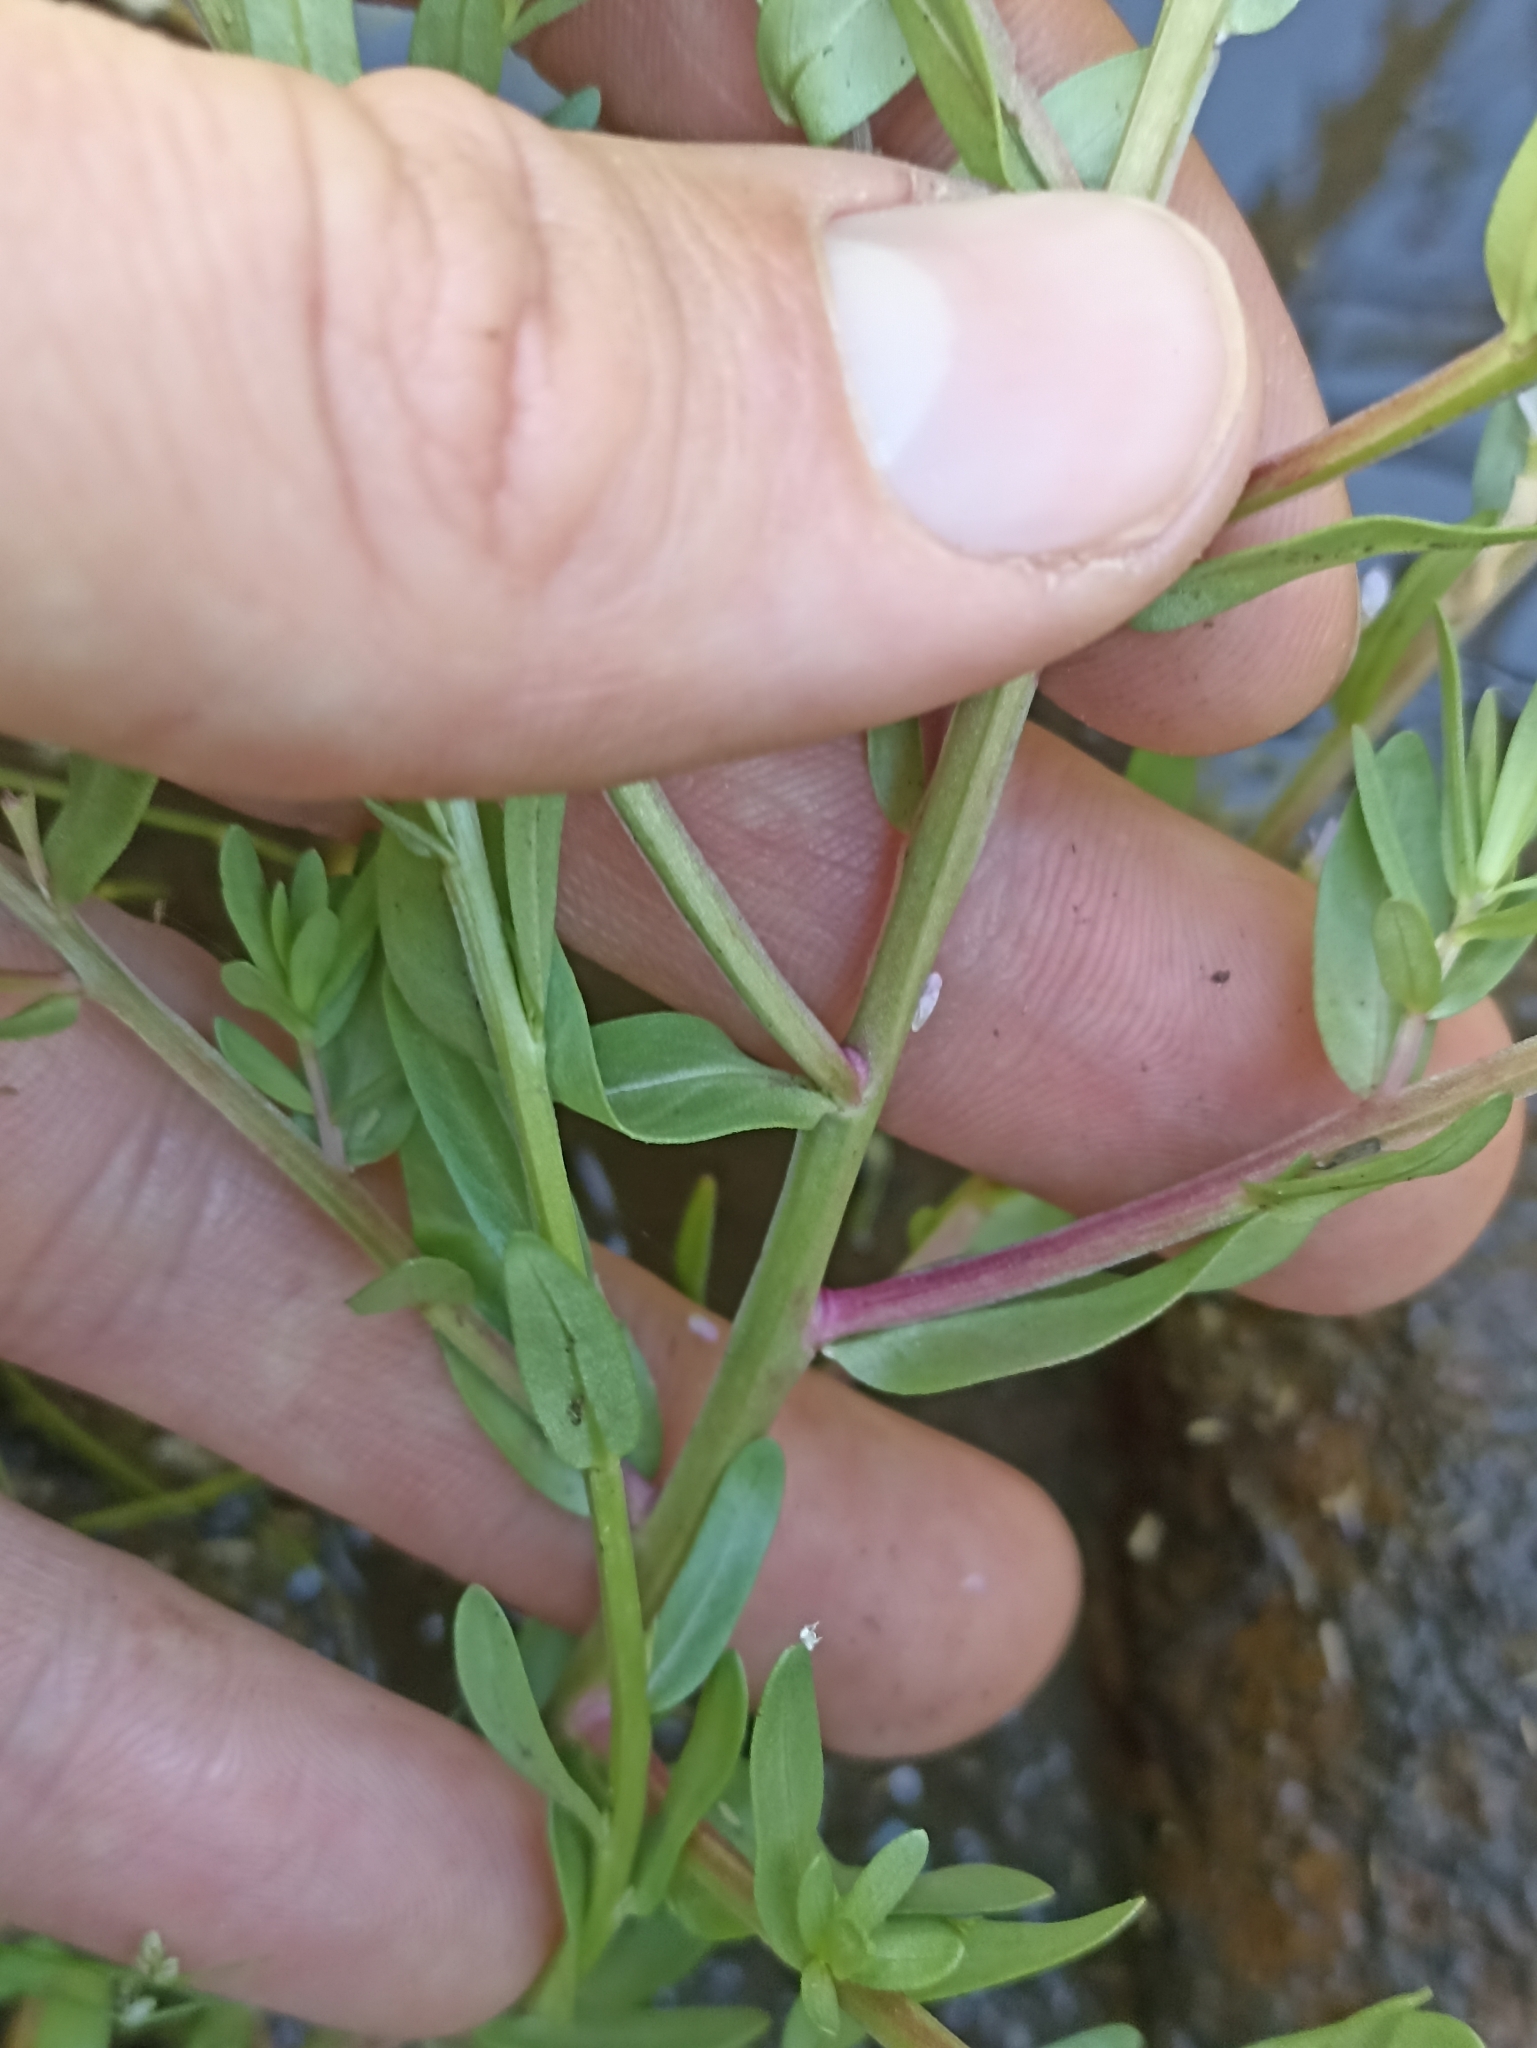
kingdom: Plantae
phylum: Tracheophyta
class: Magnoliopsida
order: Myrtales
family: Lythraceae
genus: Lythrum
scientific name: Lythrum hyssopifolia
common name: Grass-poly
